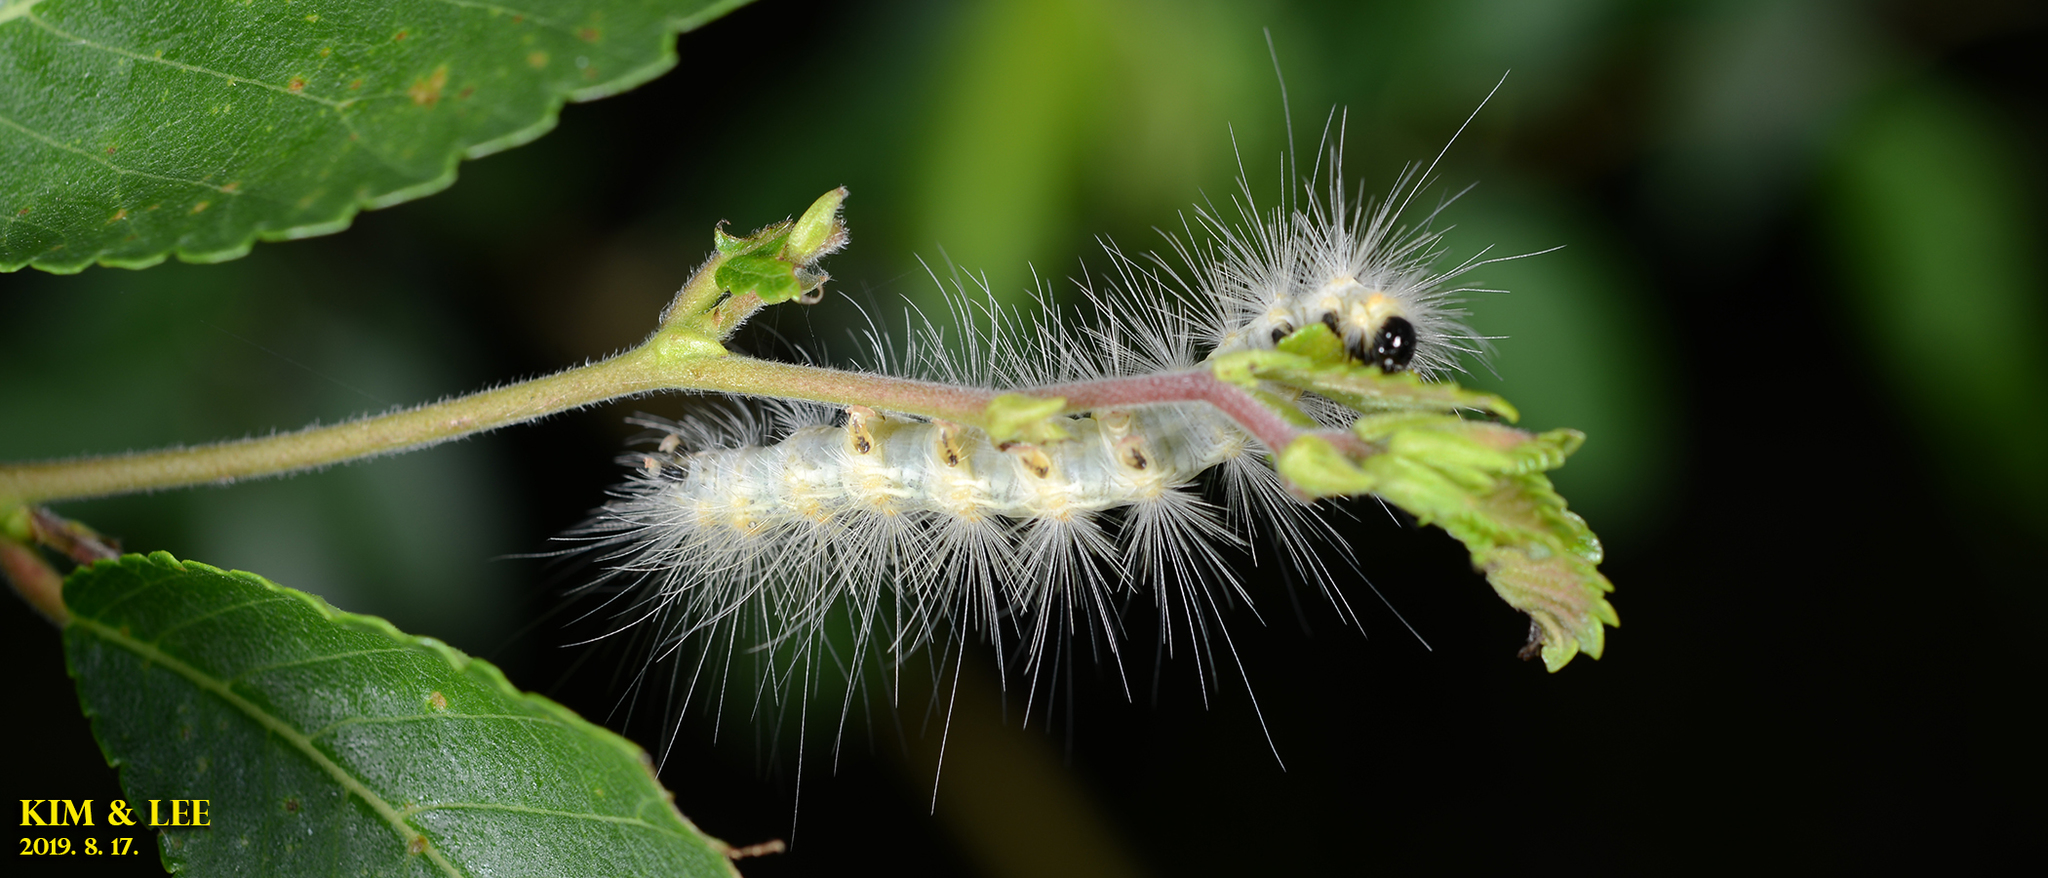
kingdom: Animalia
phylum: Arthropoda
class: Insecta
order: Lepidoptera
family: Erebidae
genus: Hyphantria
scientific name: Hyphantria cunea
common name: American white moth
